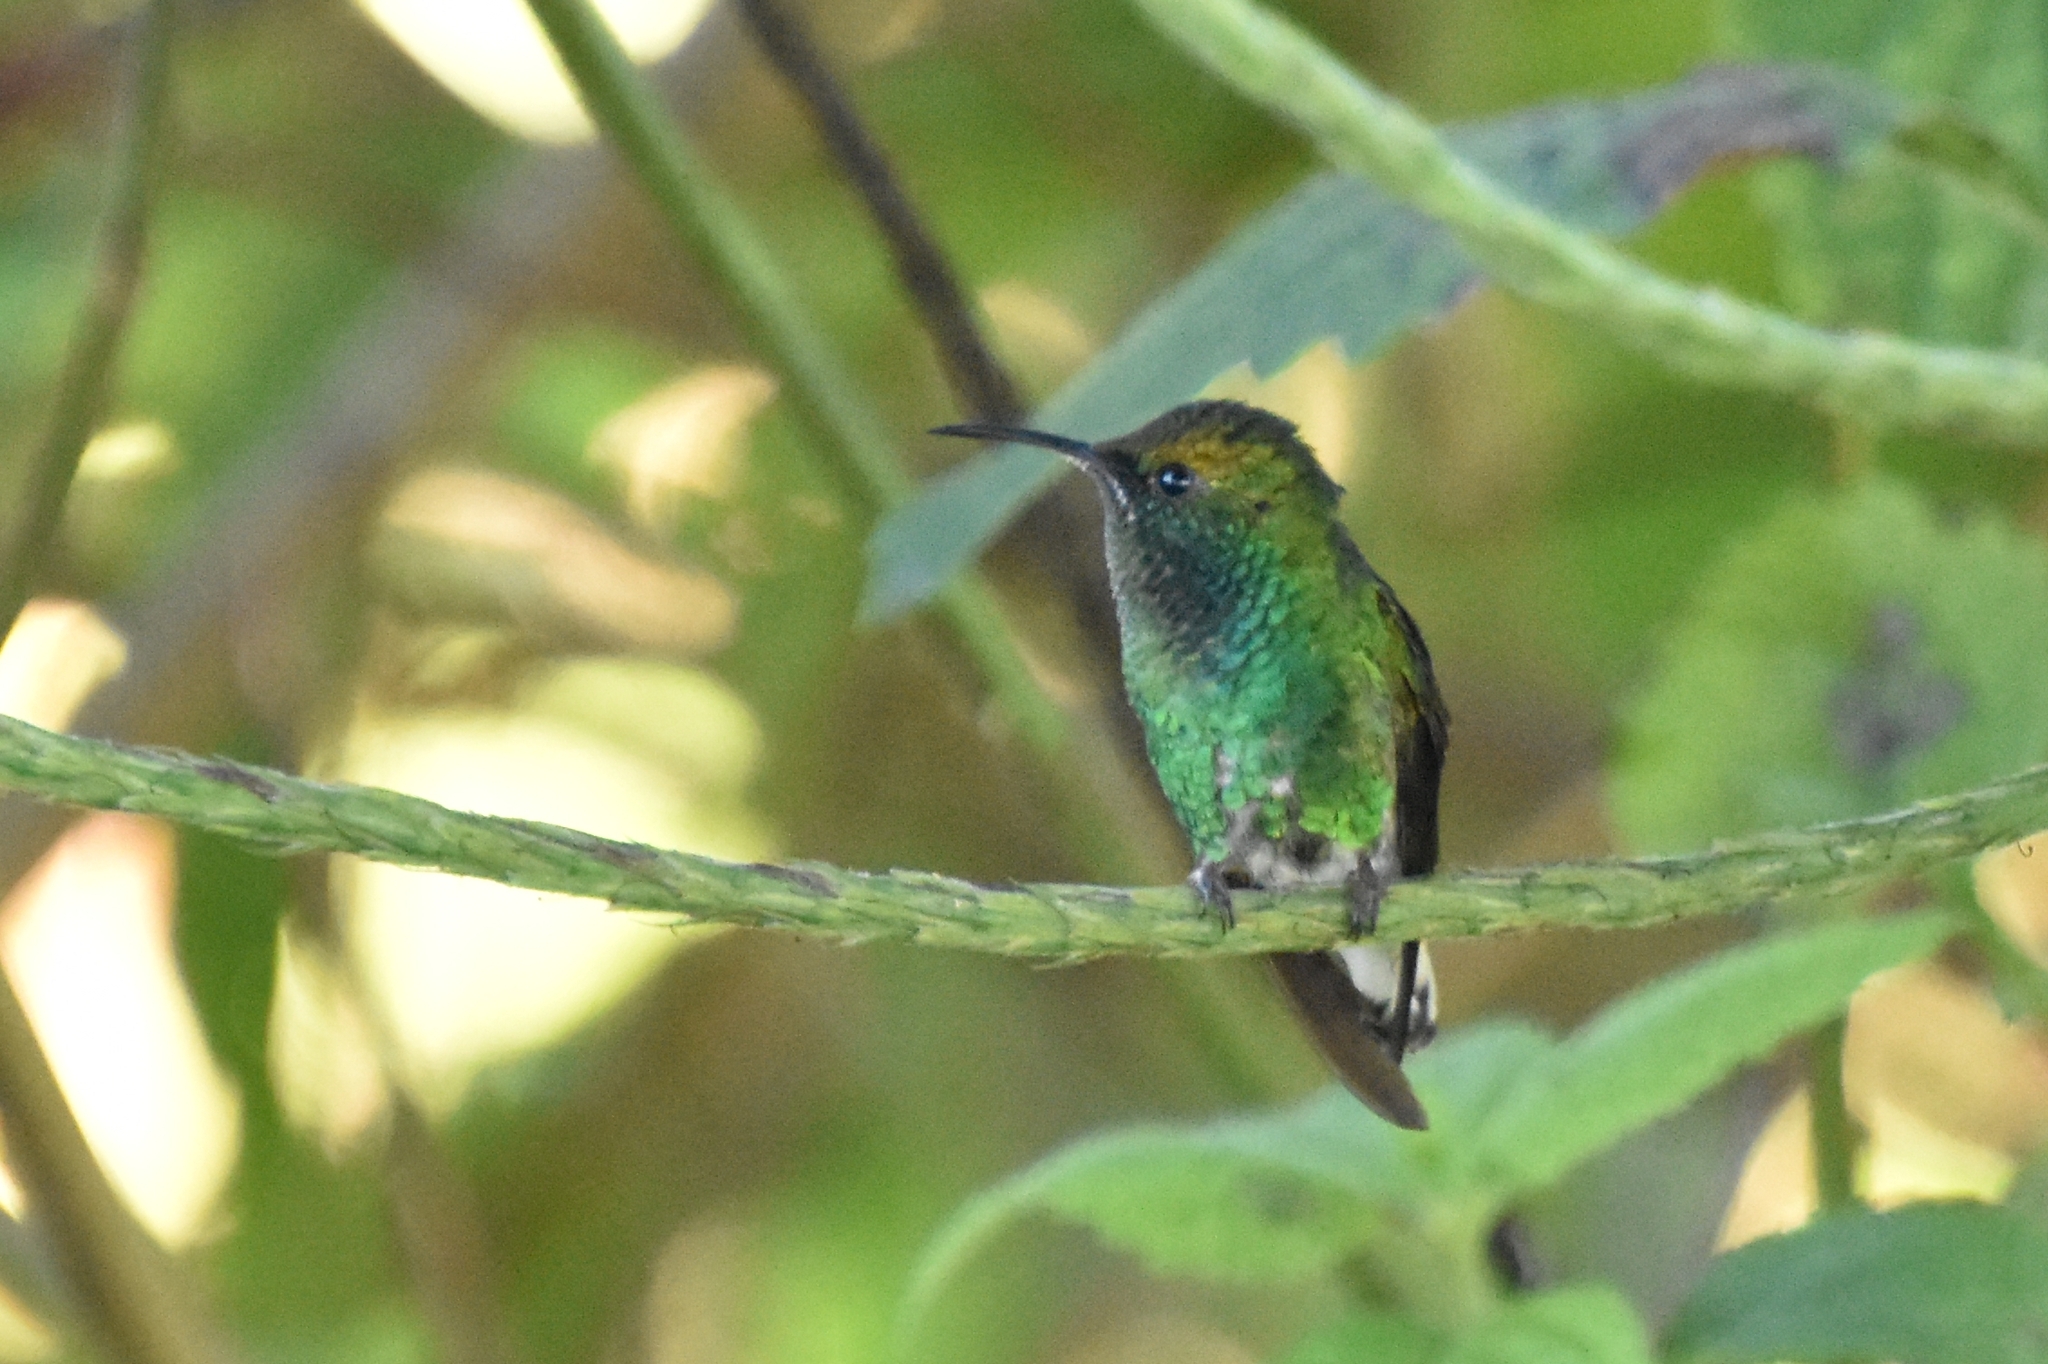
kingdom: Animalia
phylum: Chordata
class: Aves
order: Apodiformes
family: Trochilidae
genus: Microchera
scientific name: Microchera cupreiceps
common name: Coppery-headed emerald
